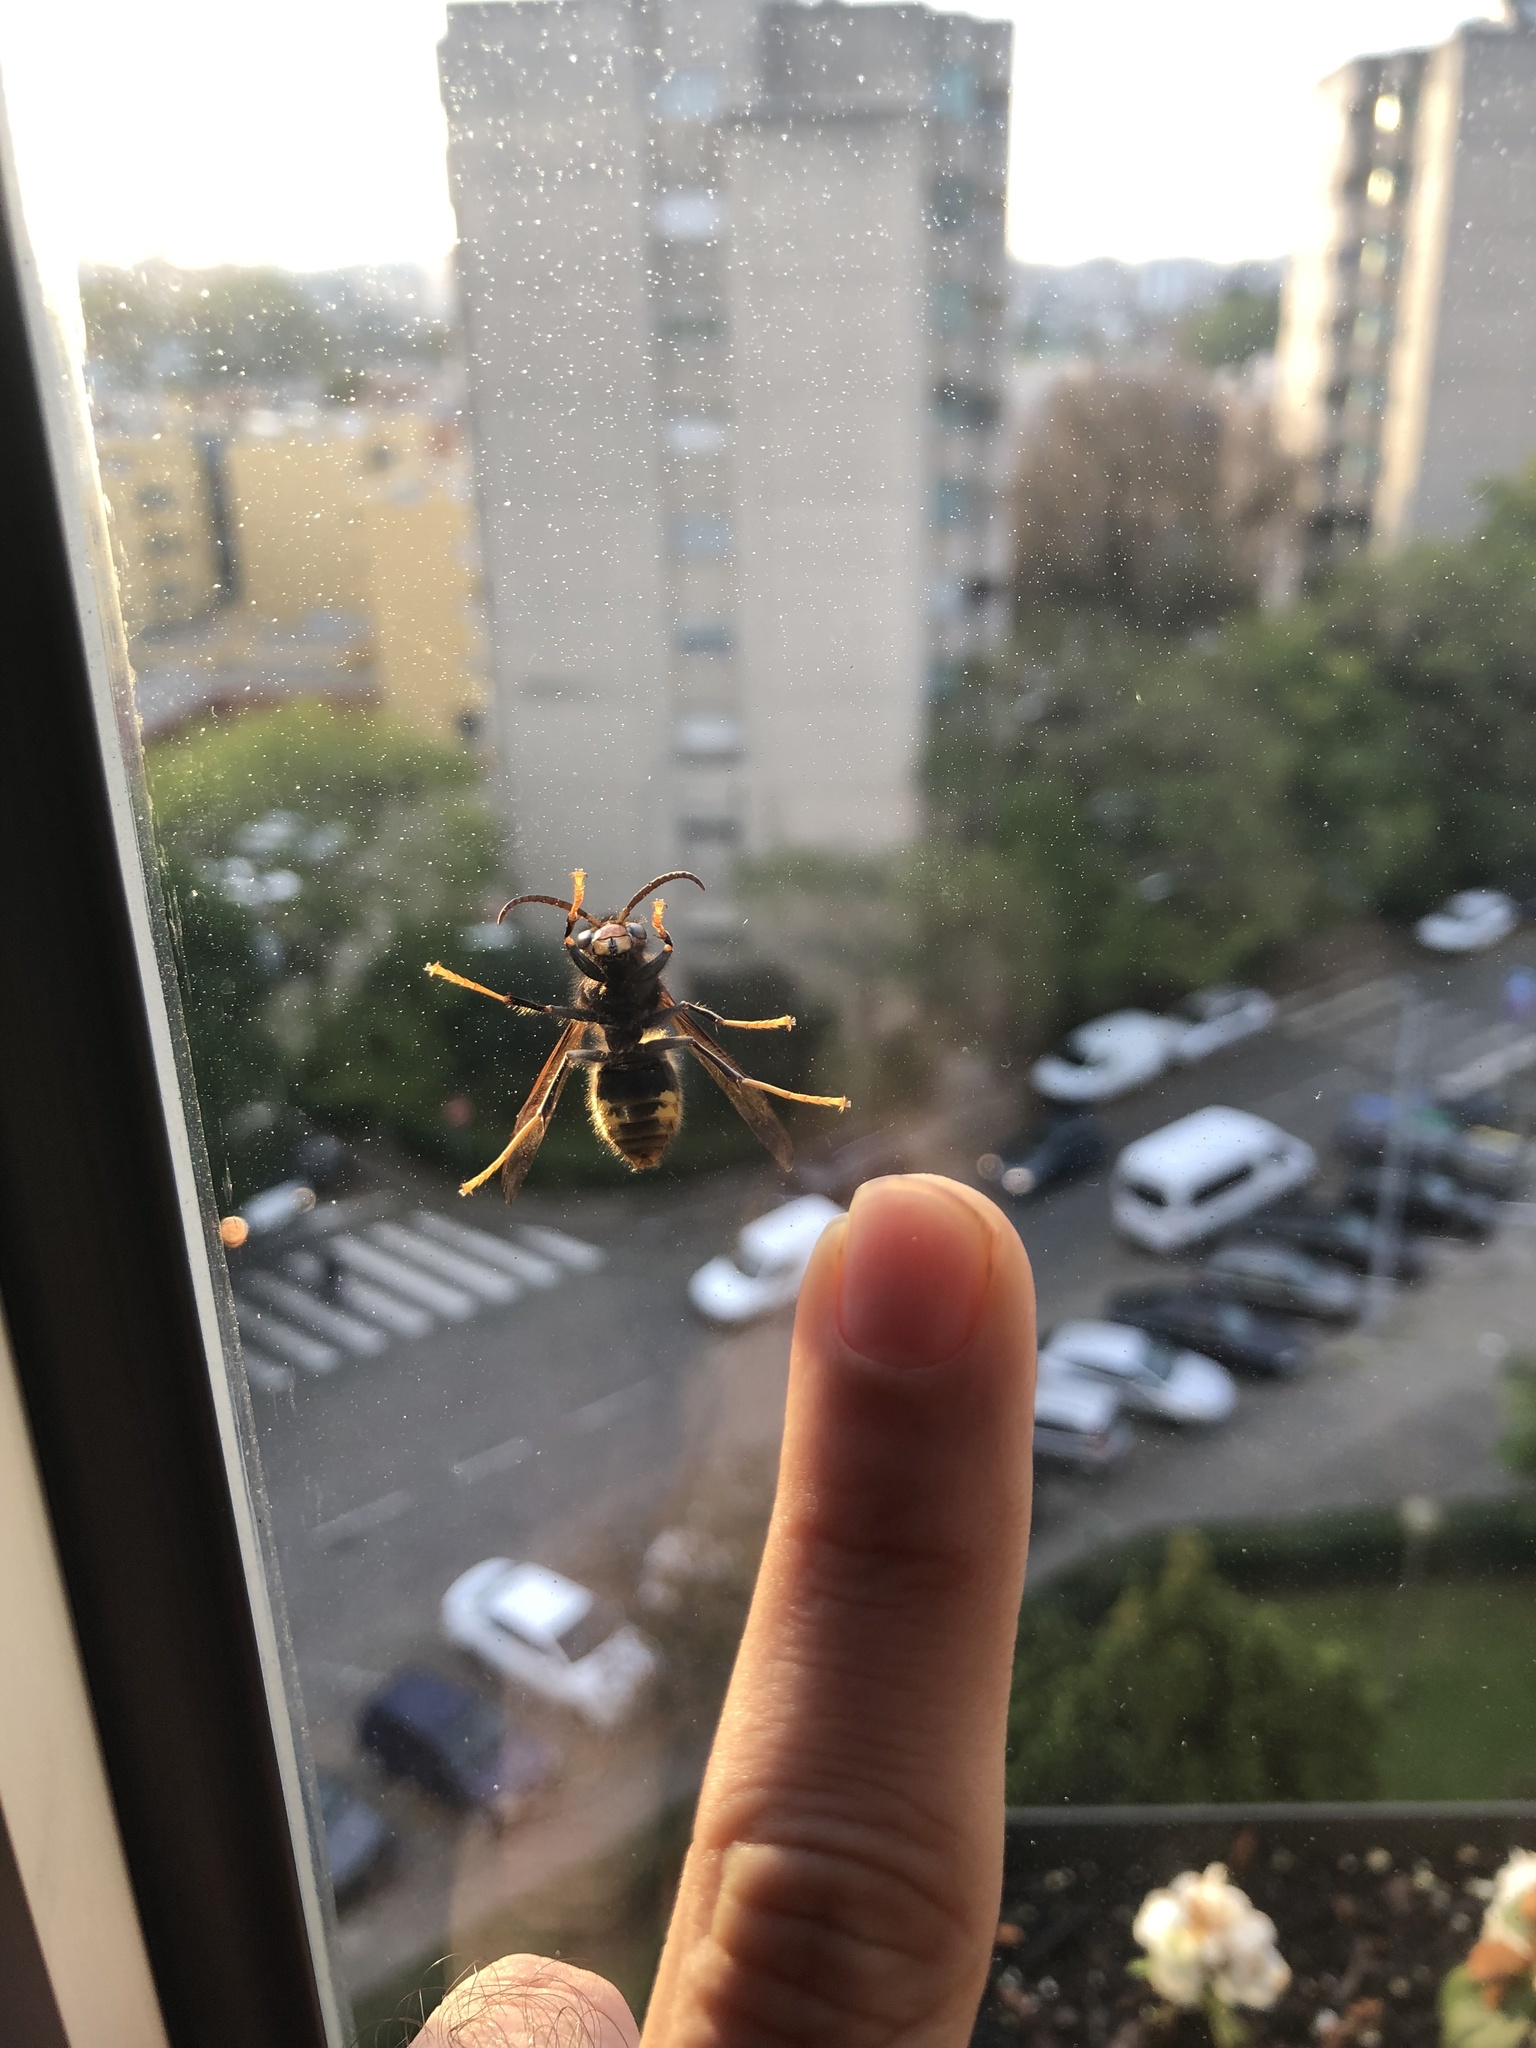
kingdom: Animalia
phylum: Arthropoda
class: Insecta
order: Hymenoptera
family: Vespidae
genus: Vespa
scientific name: Vespa velutina
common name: Asian hornet
